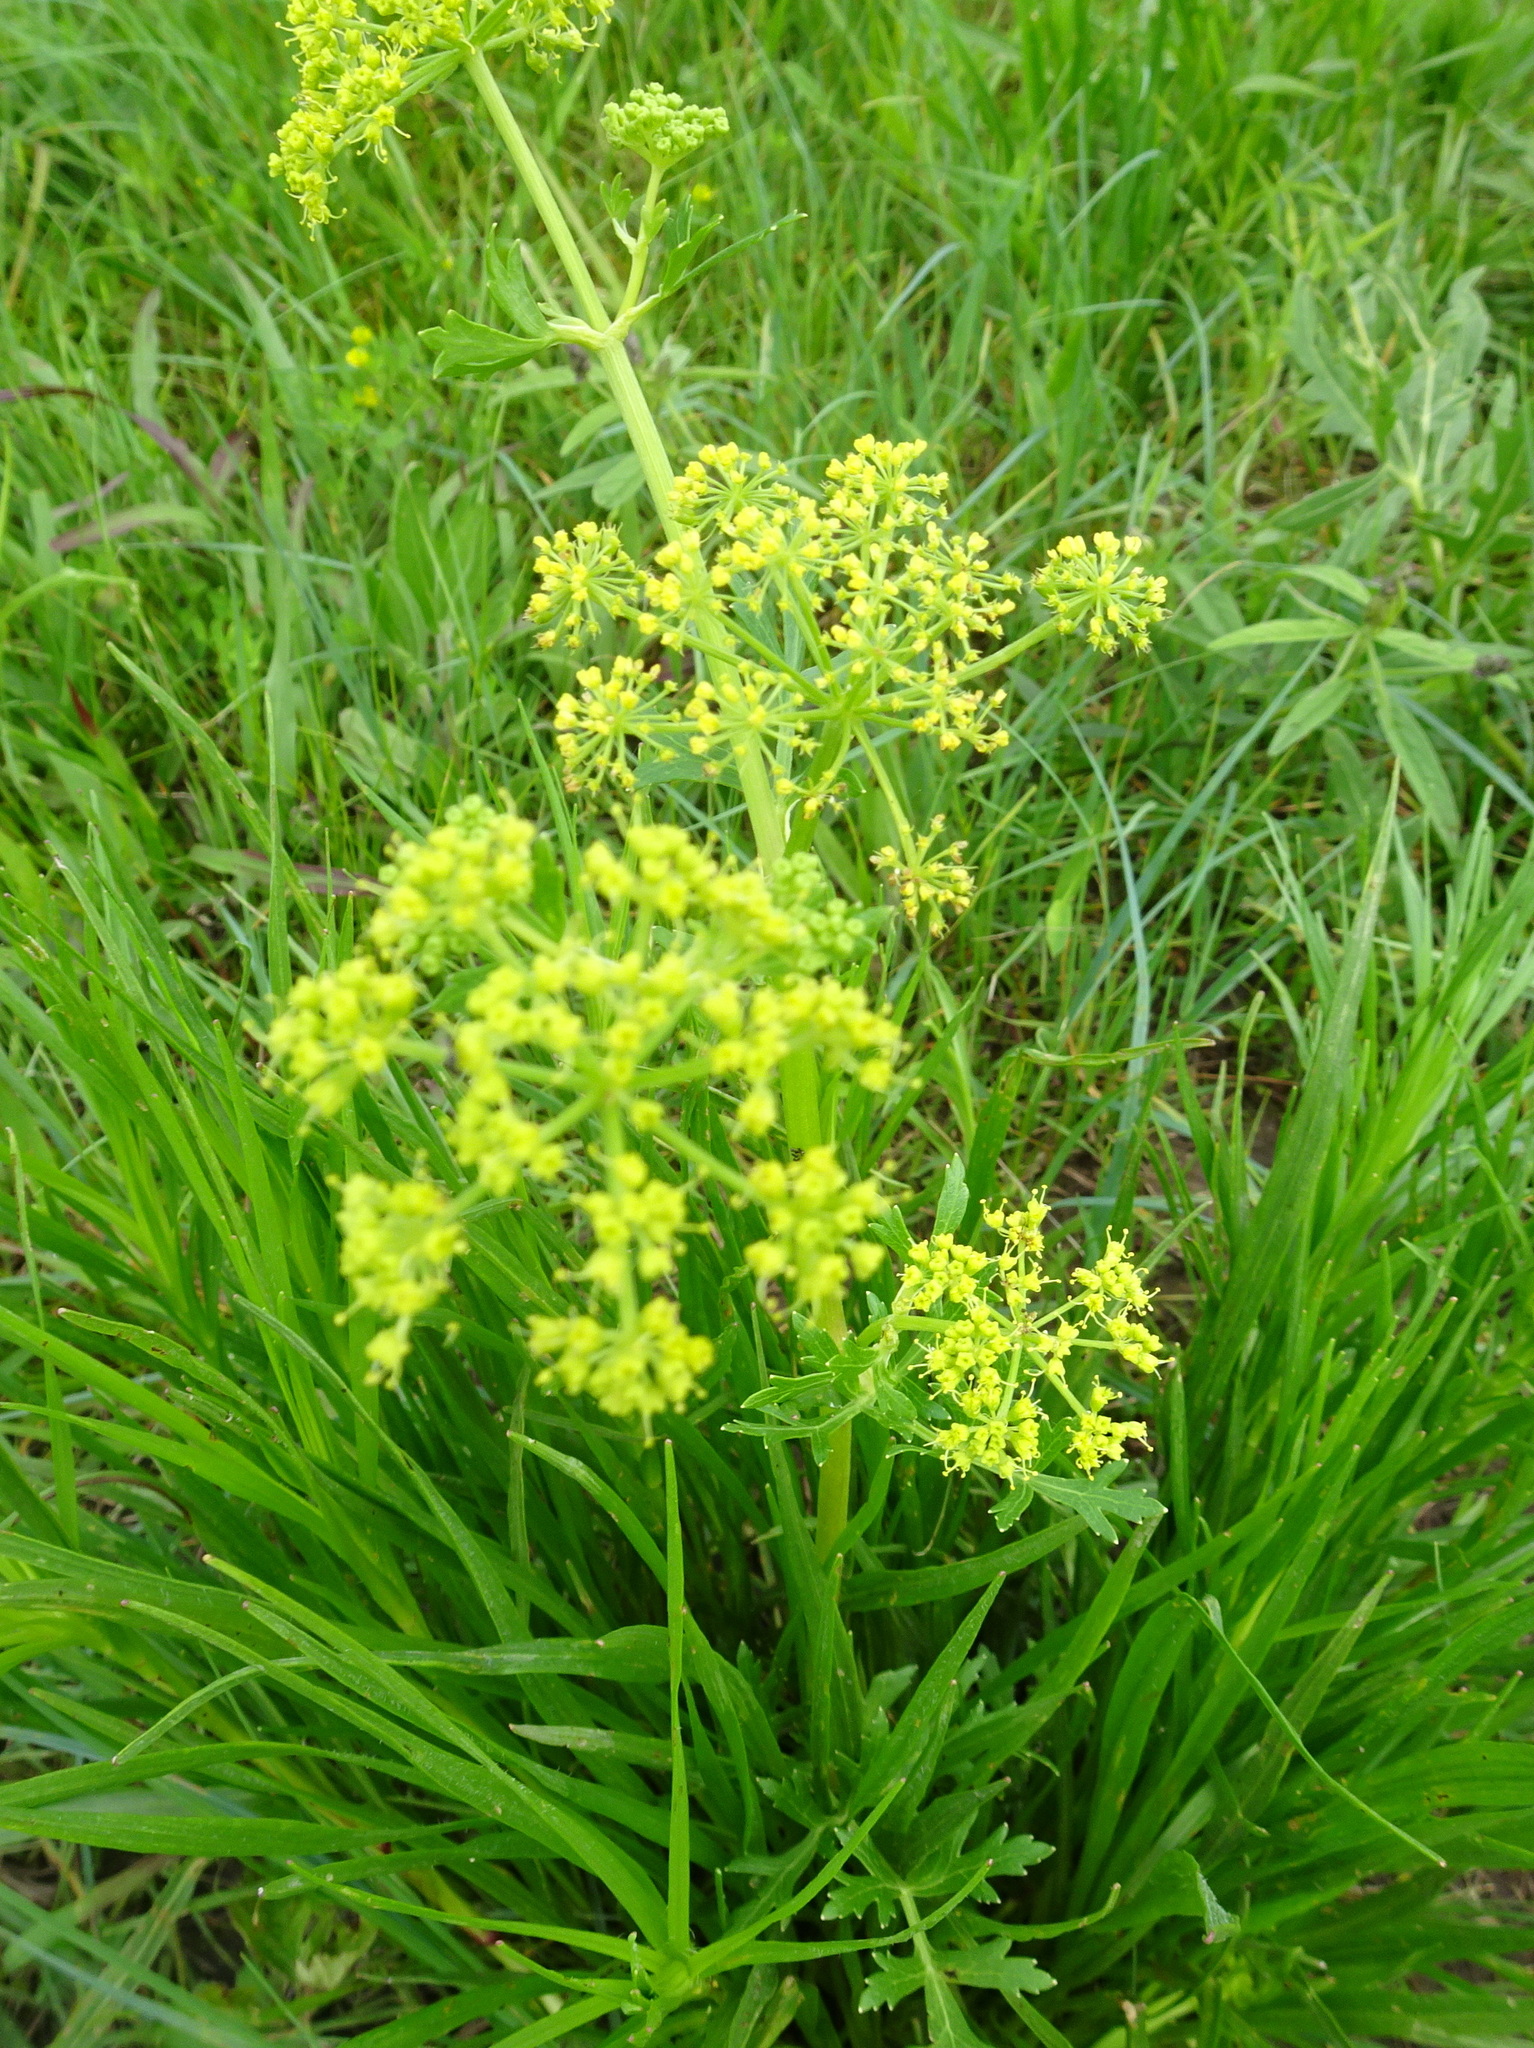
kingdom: Plantae
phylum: Tracheophyta
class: Magnoliopsida
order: Apiales
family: Apiaceae
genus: Polytaenia
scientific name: Polytaenia nuttallii
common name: Prairie-parsley
